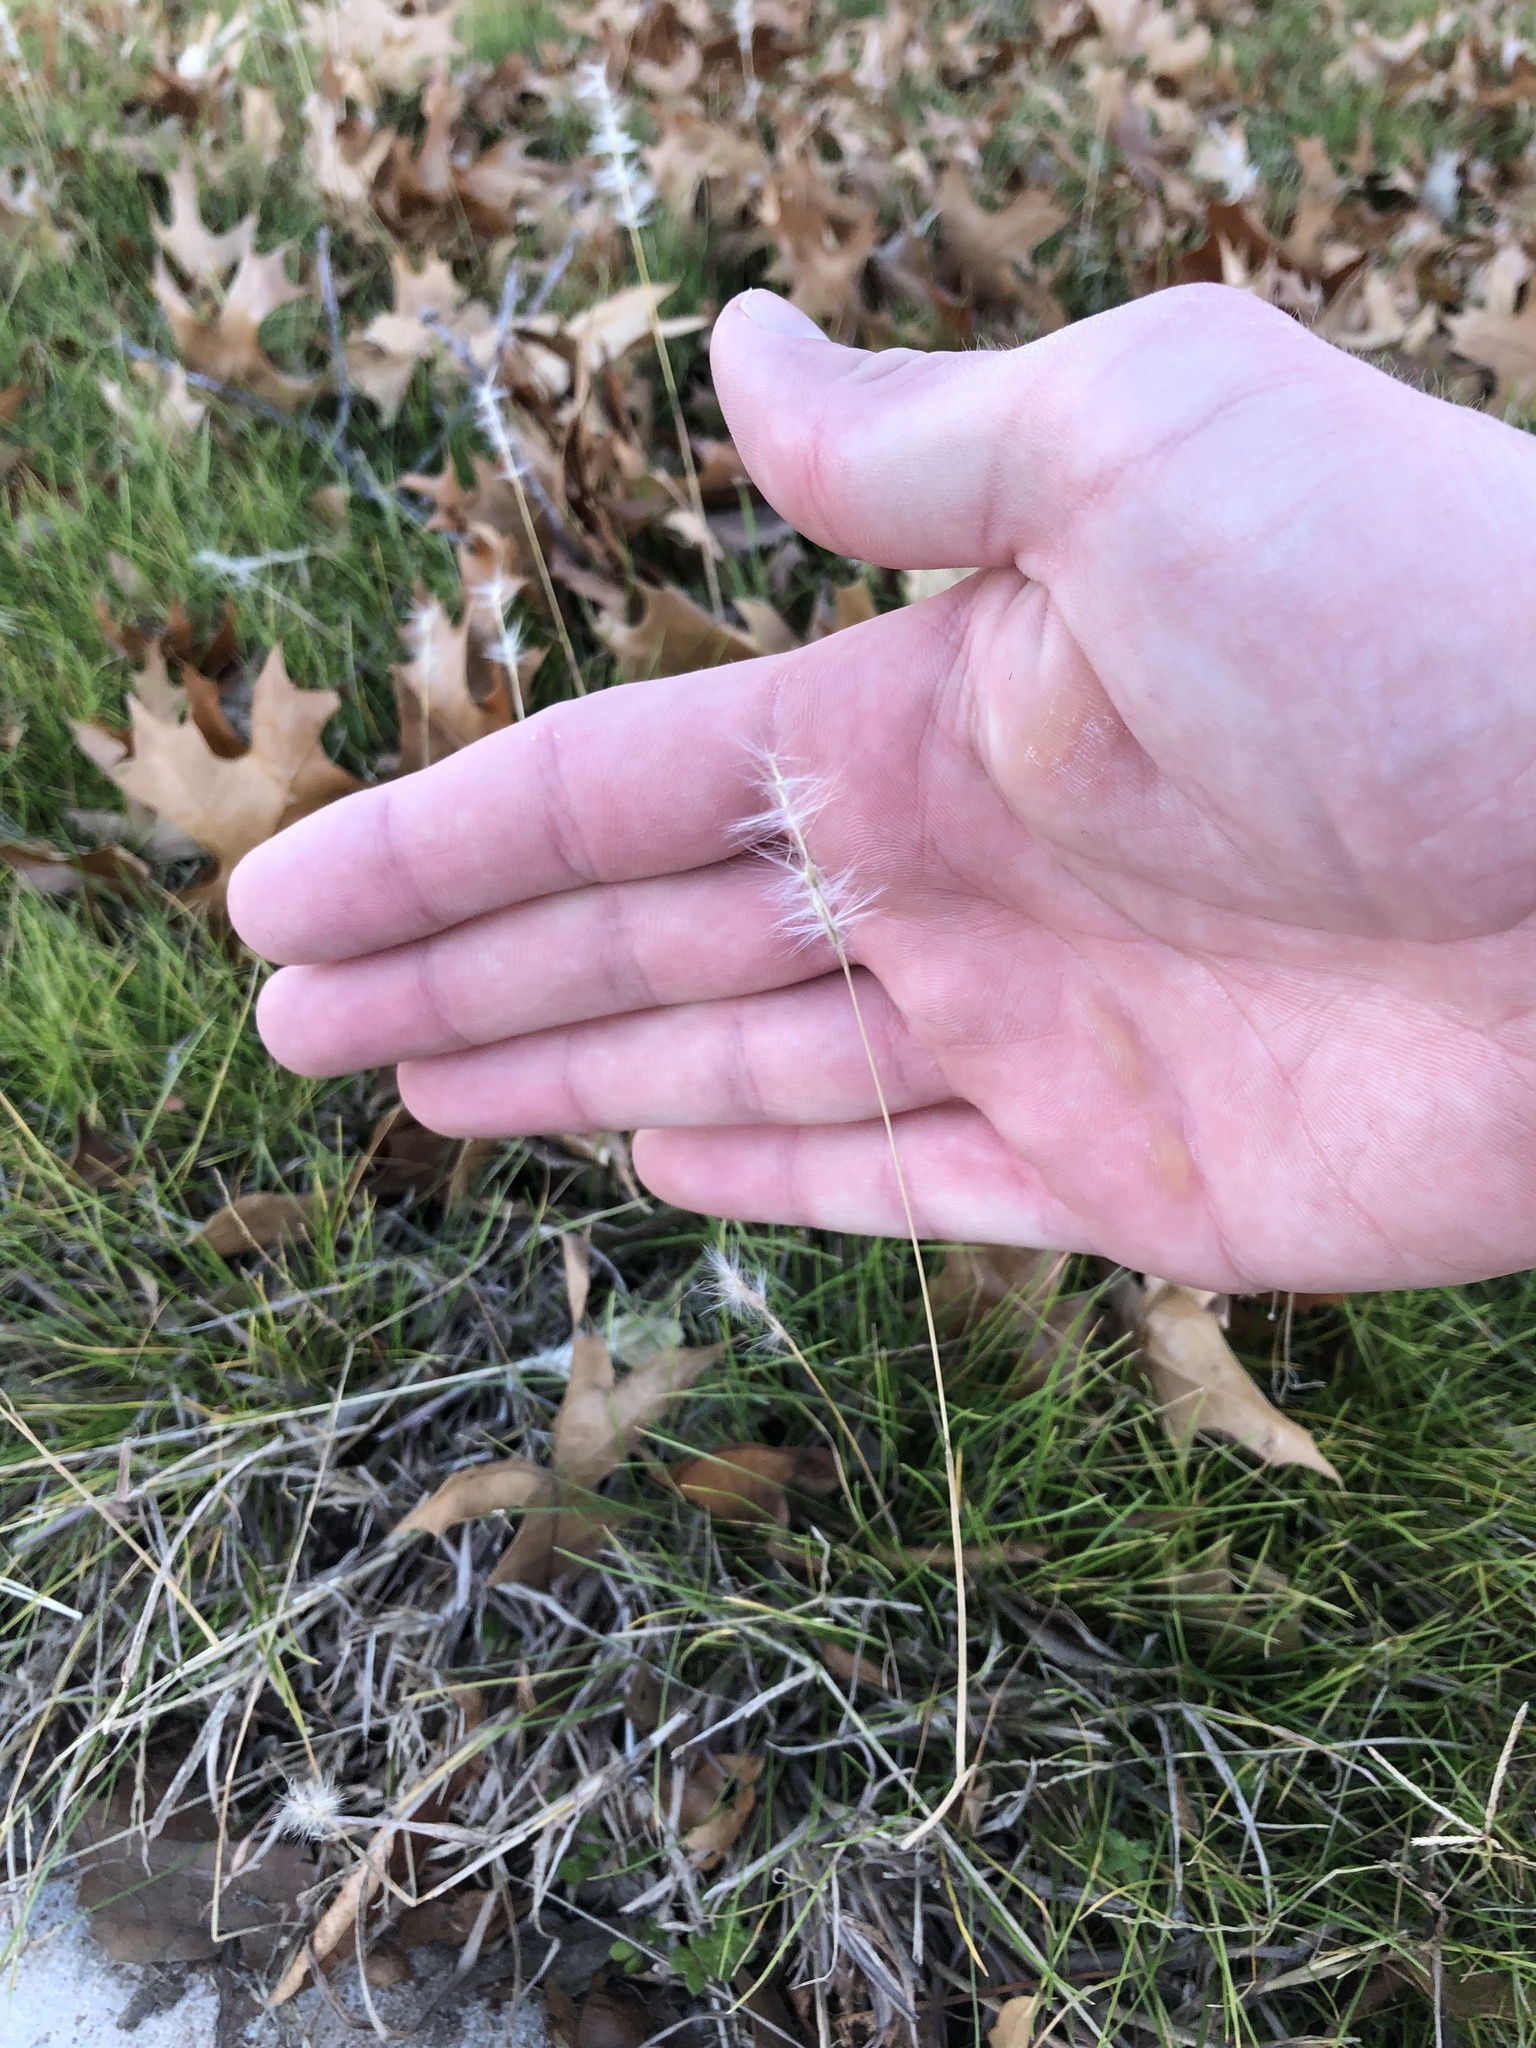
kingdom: Plantae
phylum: Tracheophyta
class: Liliopsida
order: Poales
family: Poaceae
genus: Bothriochloa
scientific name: Bothriochloa torreyana
